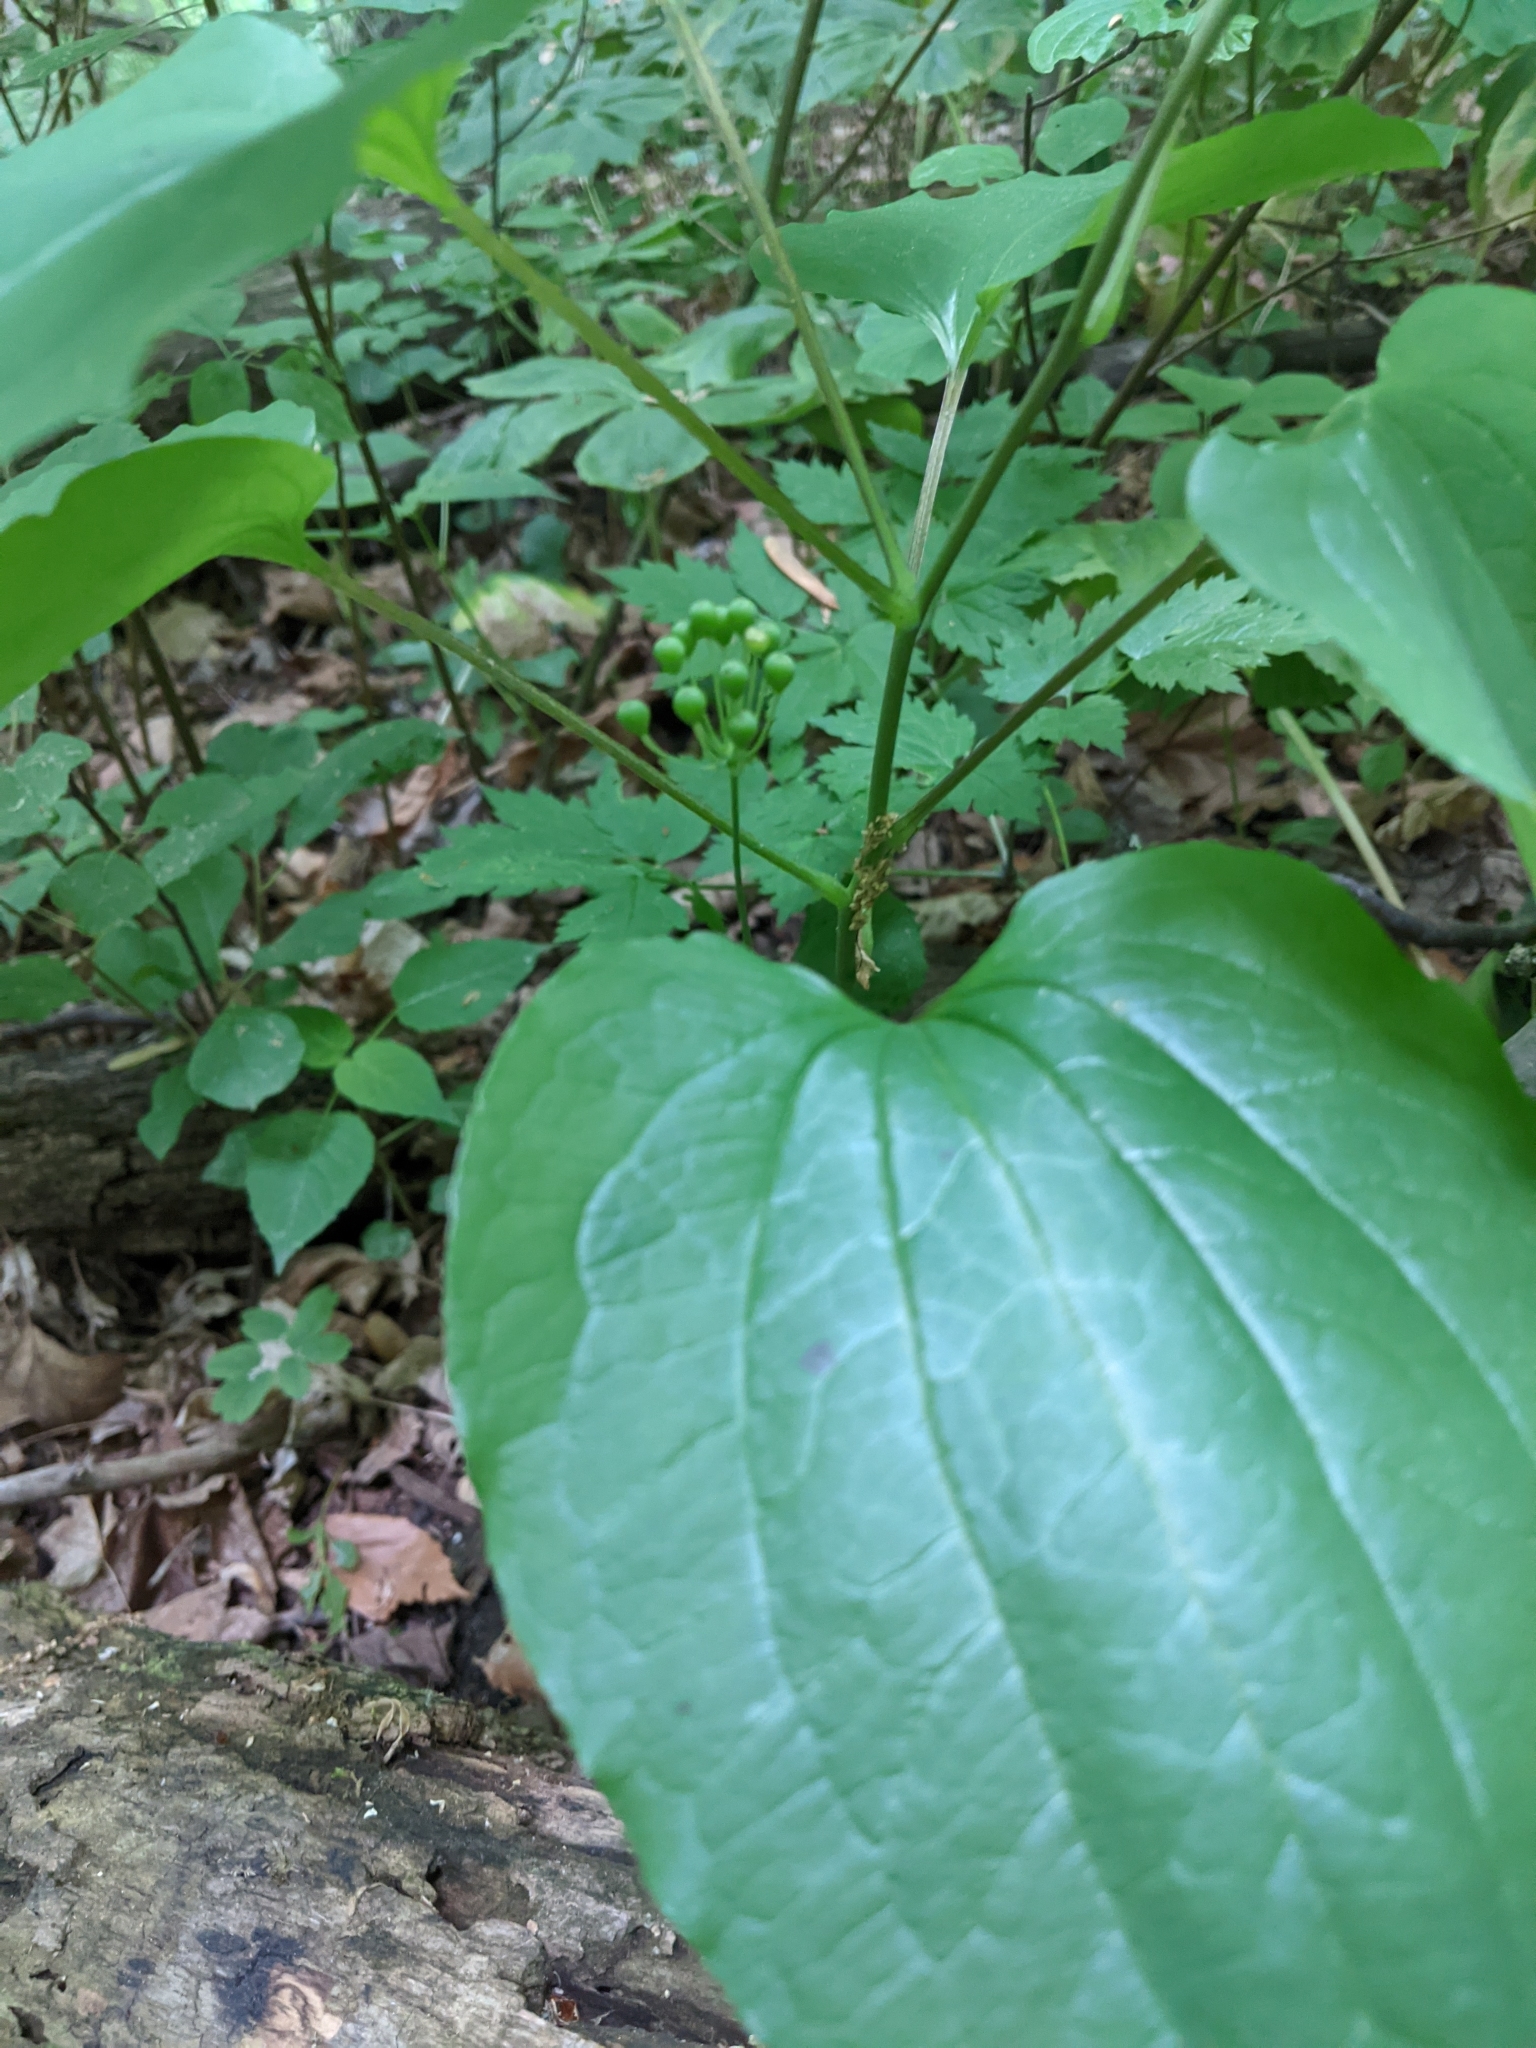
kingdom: Plantae
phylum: Tracheophyta
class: Liliopsida
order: Liliales
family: Smilacaceae
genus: Smilax
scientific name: Smilax ecirrhata
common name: Upright carrionflower
